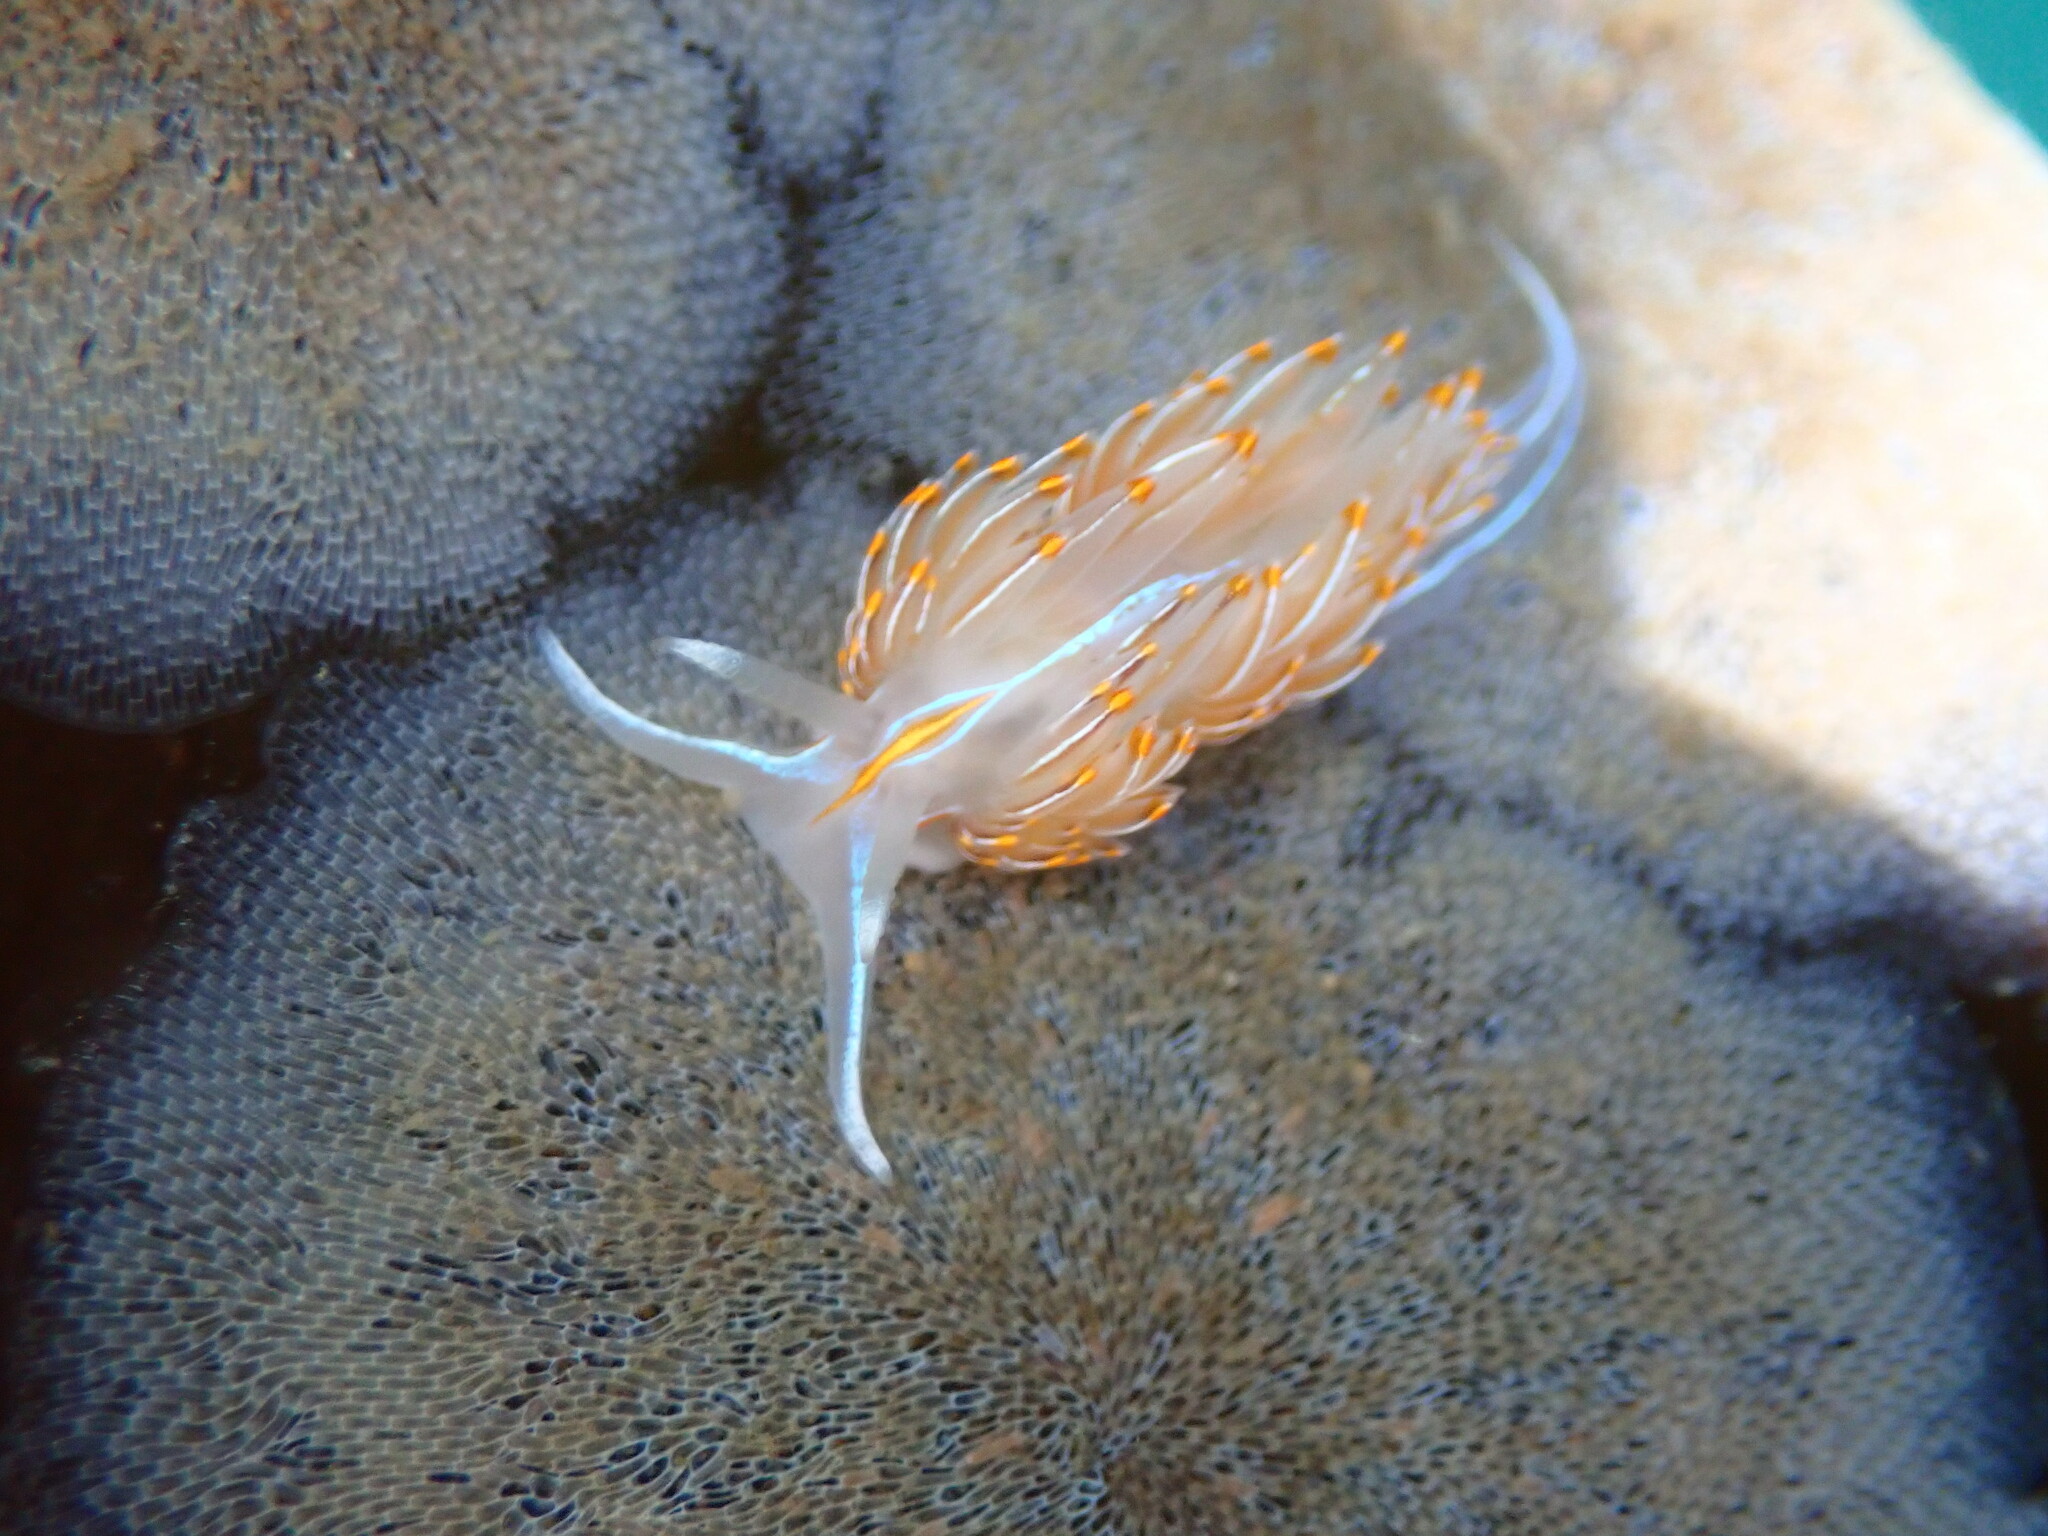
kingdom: Animalia
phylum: Mollusca
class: Gastropoda
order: Nudibranchia
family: Myrrhinidae
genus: Hermissenda
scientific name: Hermissenda crassicornis
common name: Hermissenda
